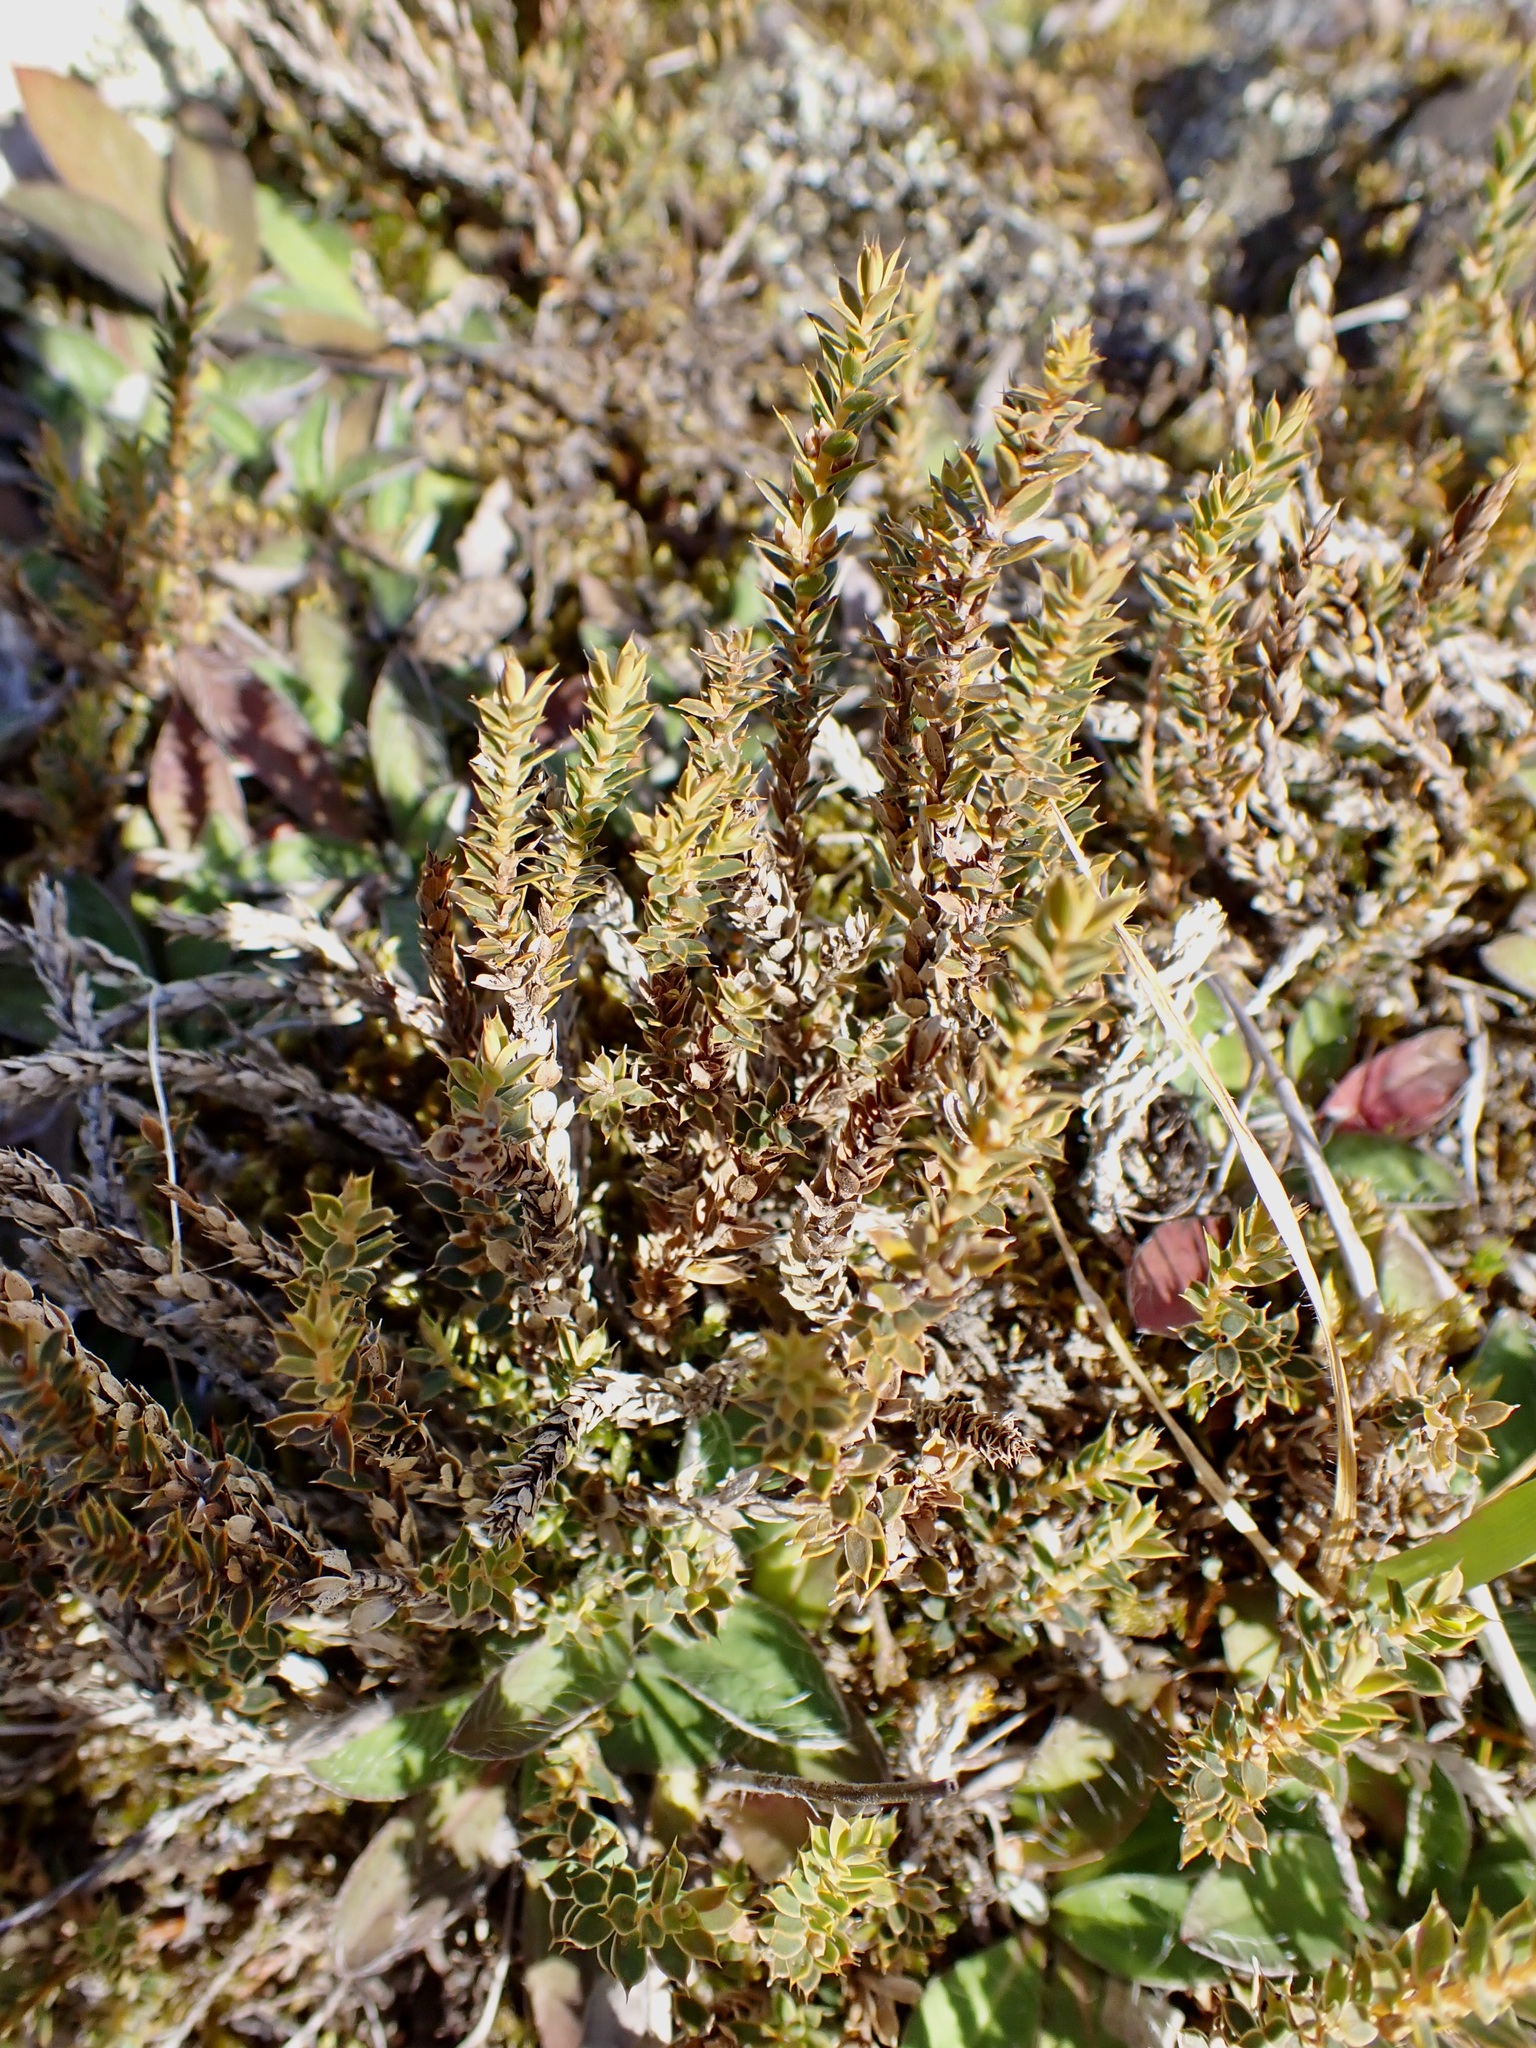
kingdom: Plantae
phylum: Tracheophyta
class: Magnoliopsida
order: Ericales
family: Ericaceae
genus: Styphelia
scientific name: Styphelia nesophila
